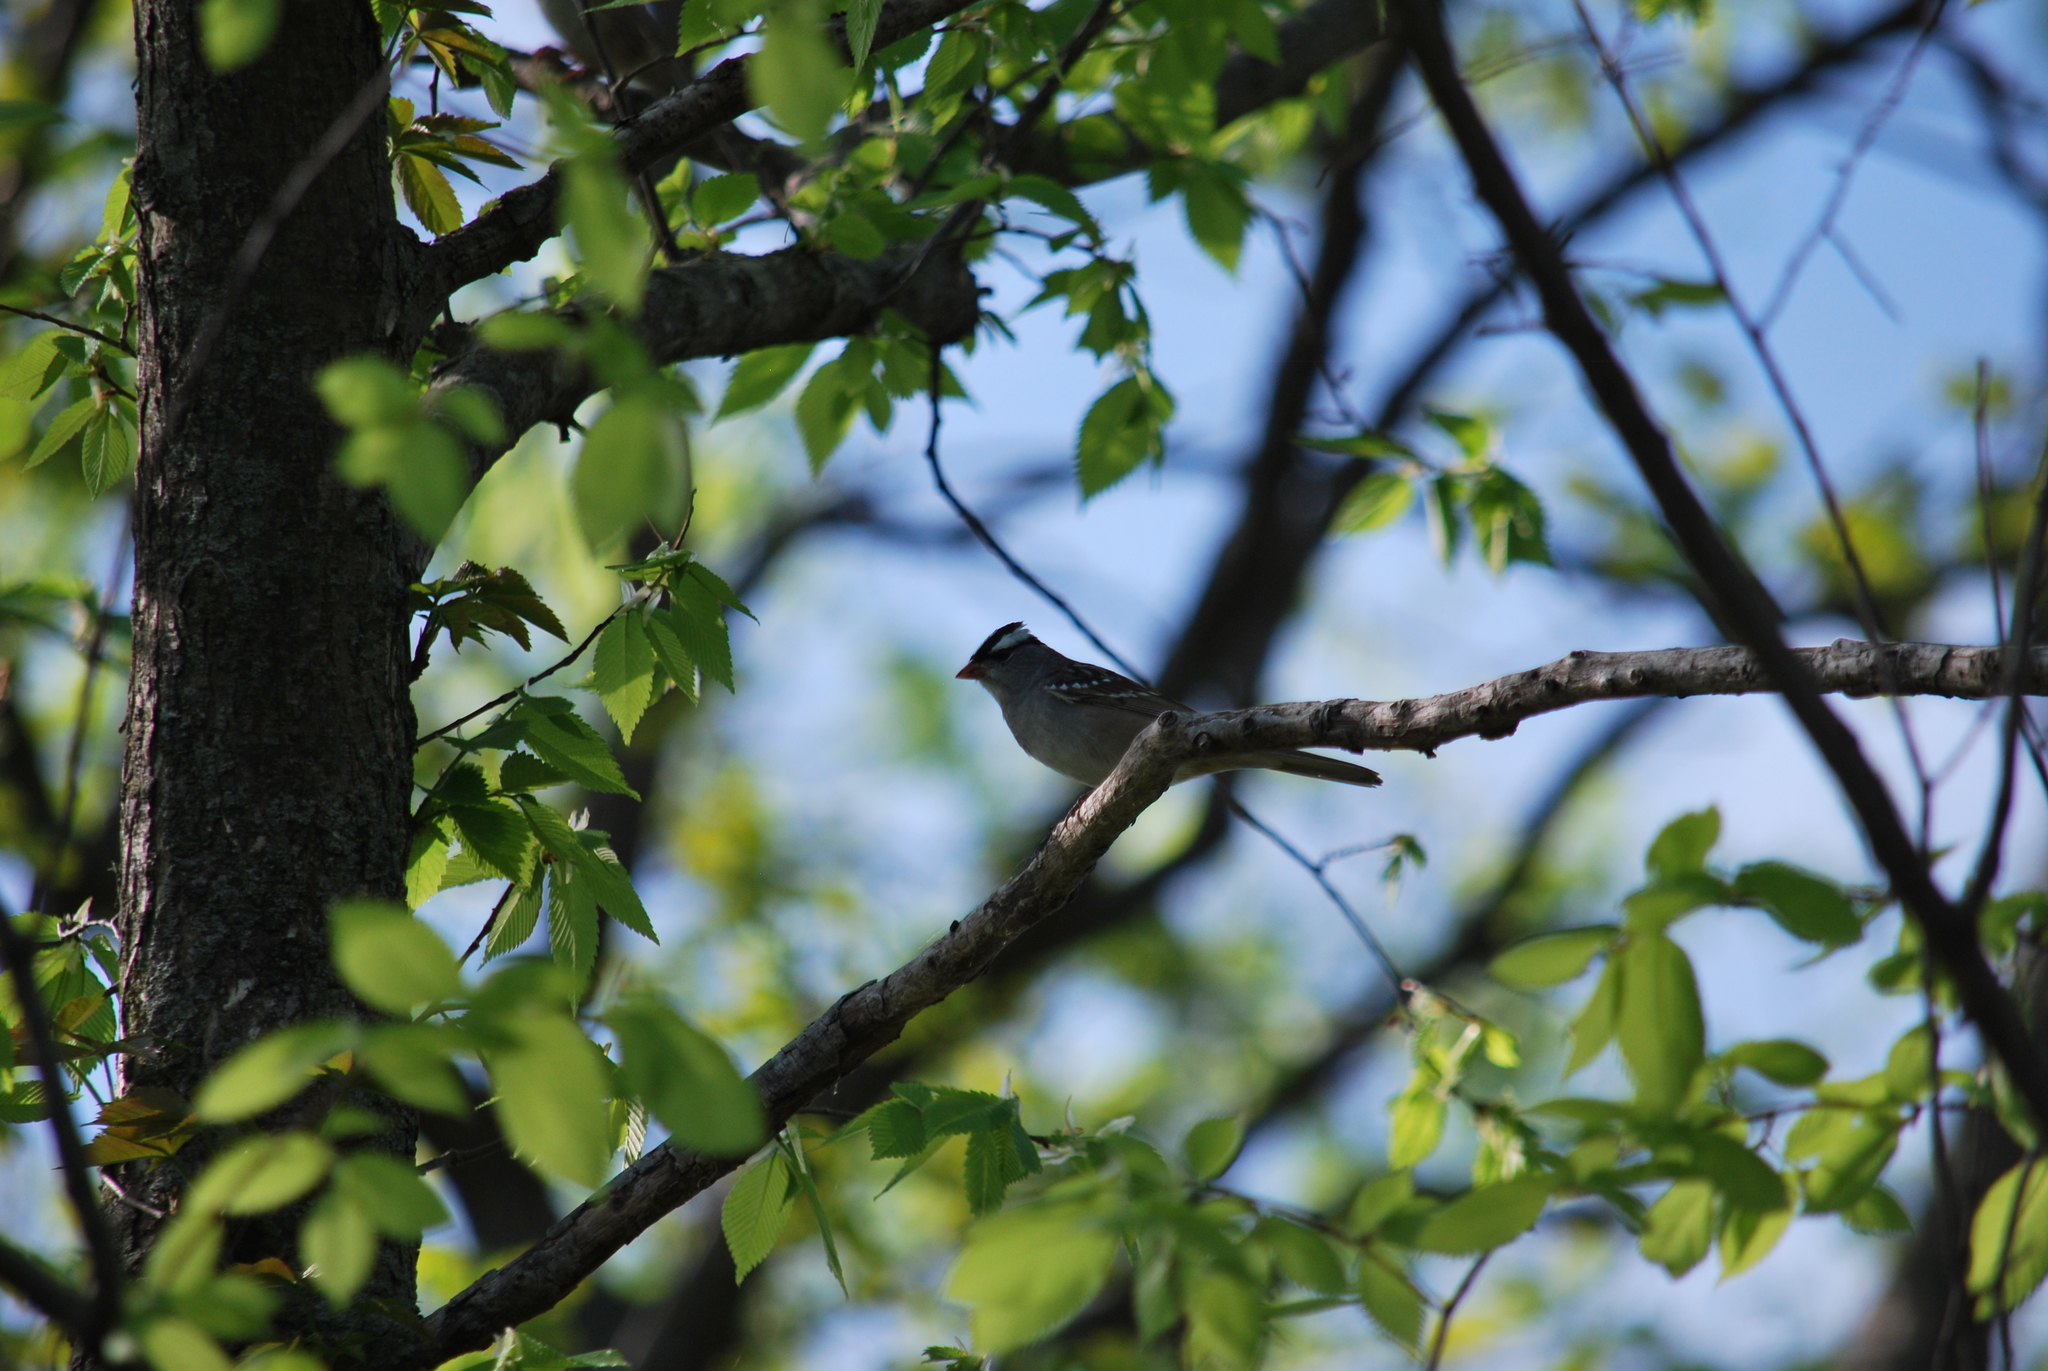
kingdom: Animalia
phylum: Chordata
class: Aves
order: Passeriformes
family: Passerellidae
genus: Zonotrichia
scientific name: Zonotrichia leucophrys
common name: White-crowned sparrow
